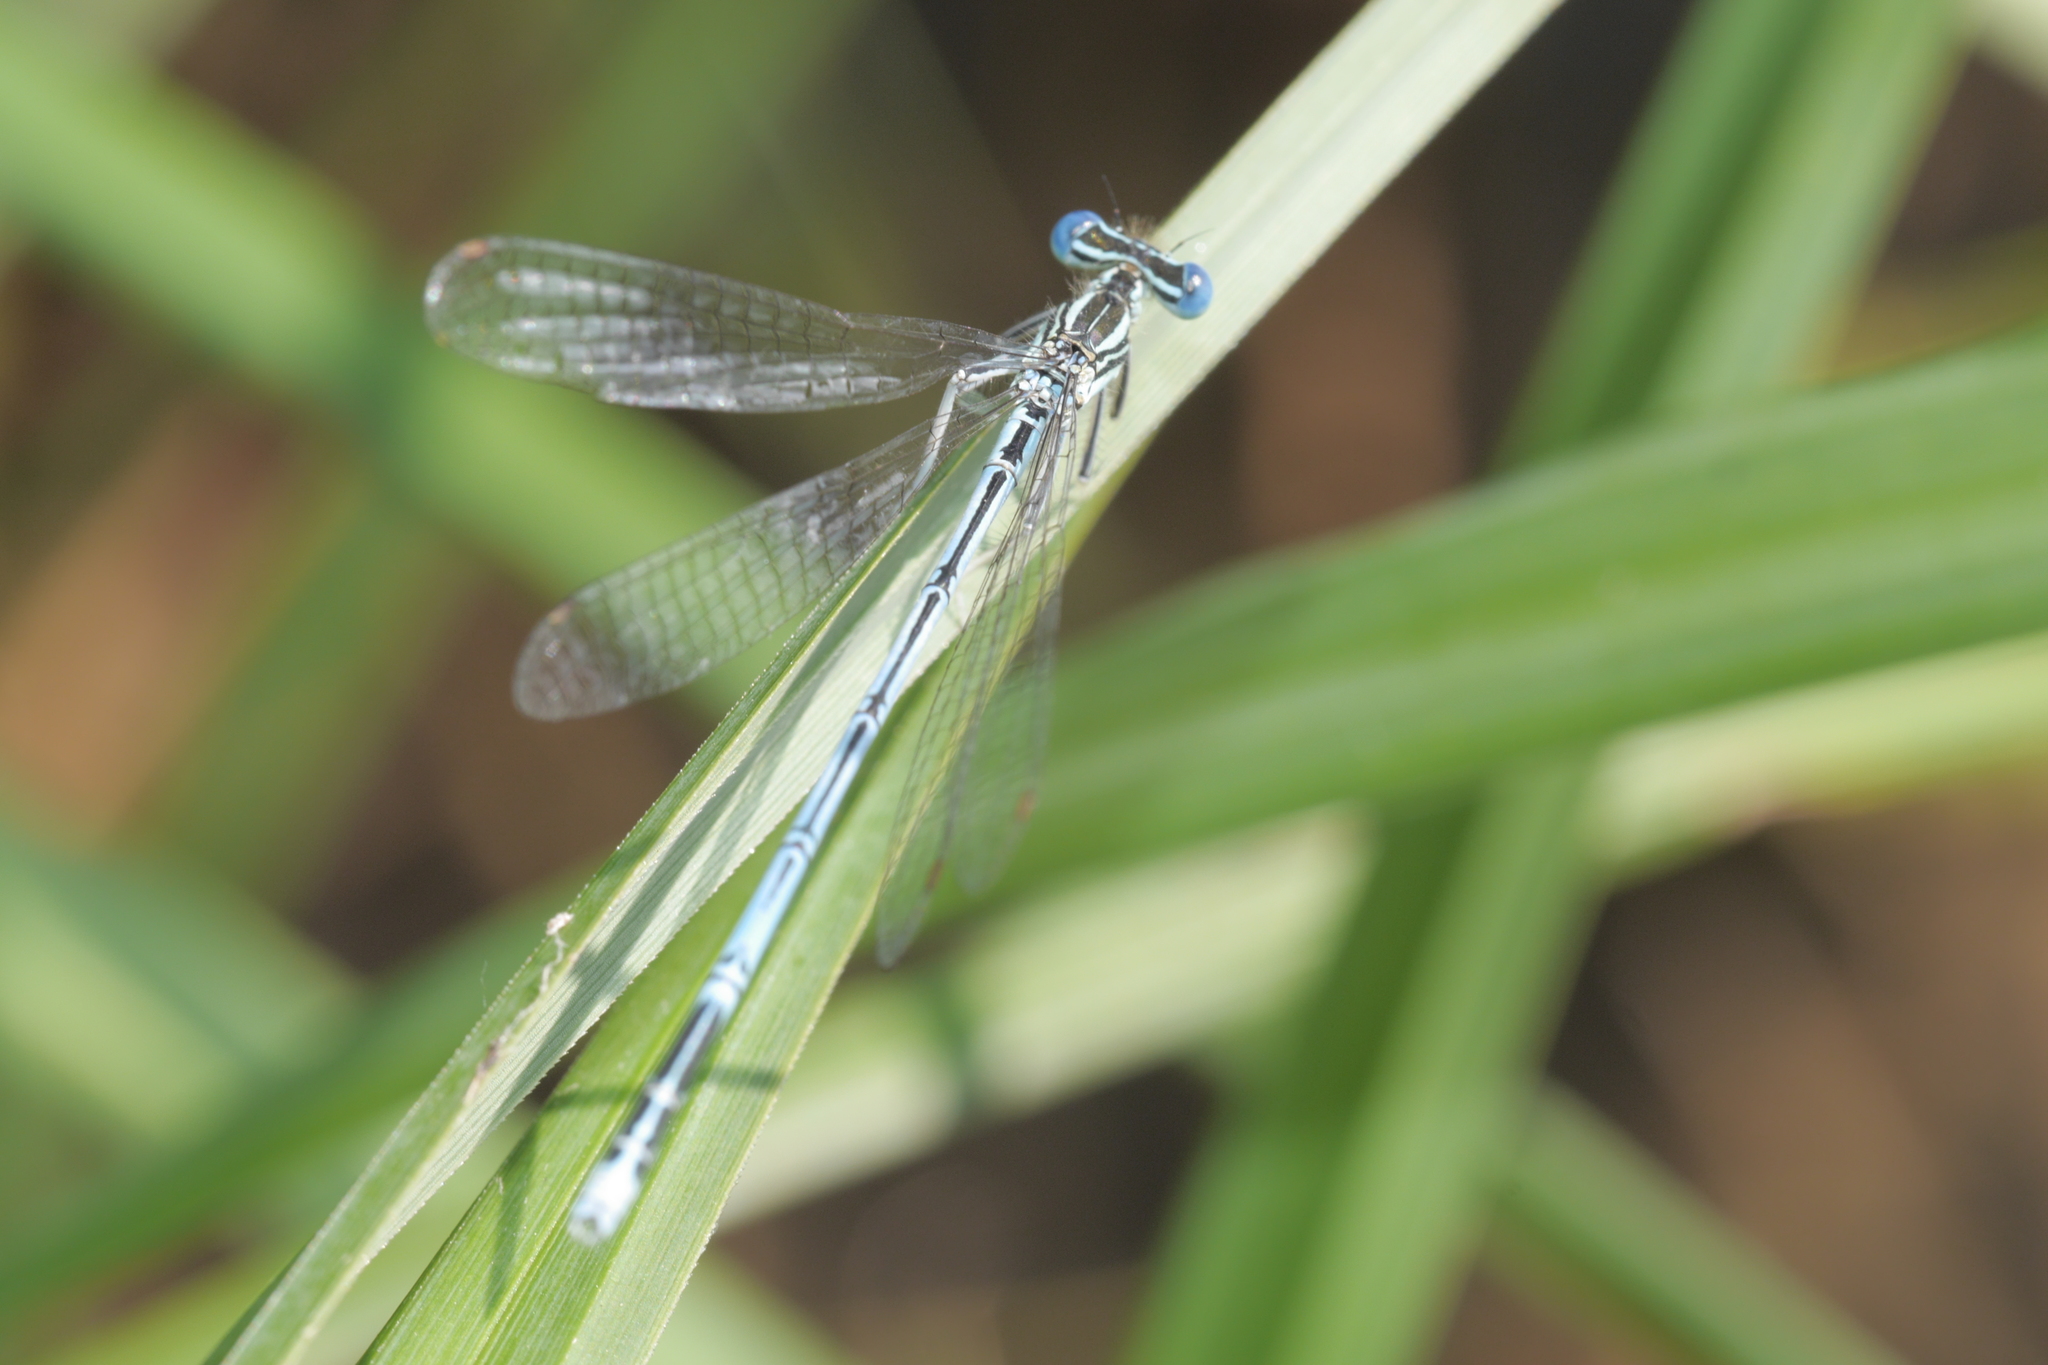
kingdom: Animalia
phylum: Arthropoda
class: Insecta
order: Odonata
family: Platycnemididae
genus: Platycnemis
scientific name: Platycnemis pennipes
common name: White-legged damselfly
